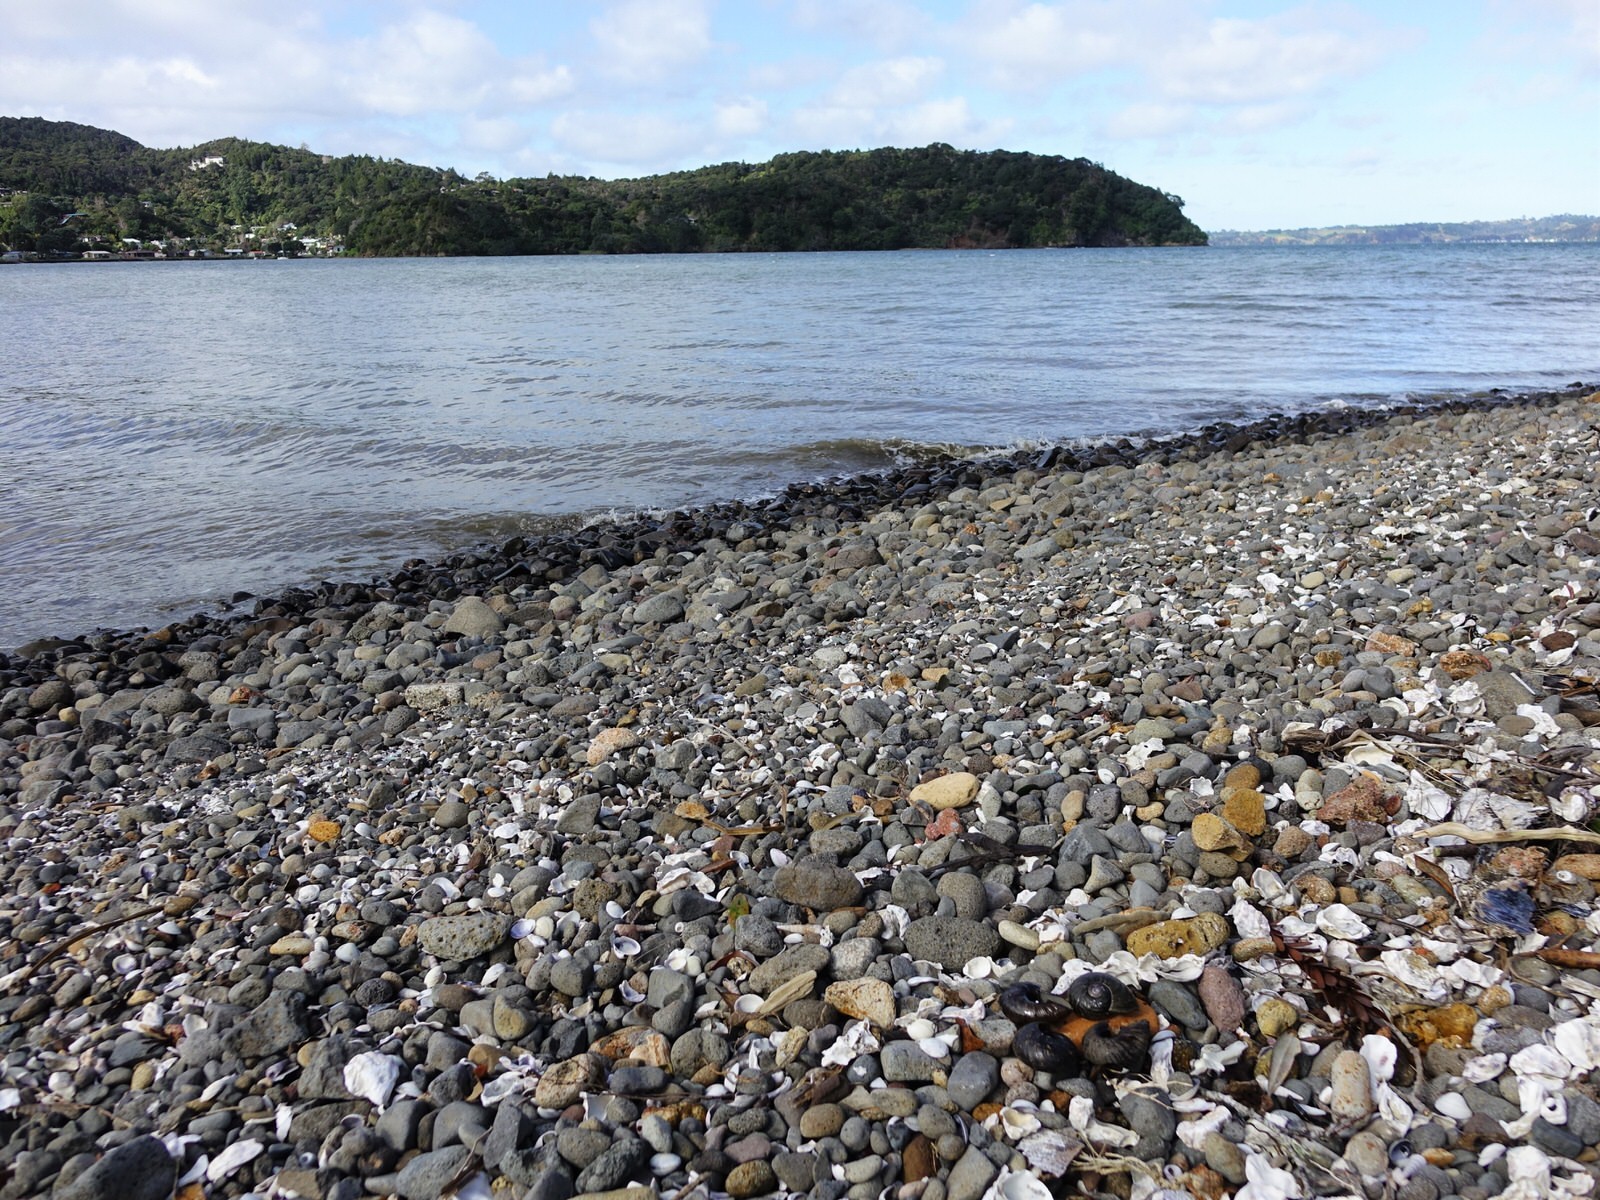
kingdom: Animalia
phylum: Mollusca
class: Gastropoda
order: Stylommatophora
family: Rhytididae
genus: Paryphanta
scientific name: Paryphanta busbyi
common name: Kauri snail
